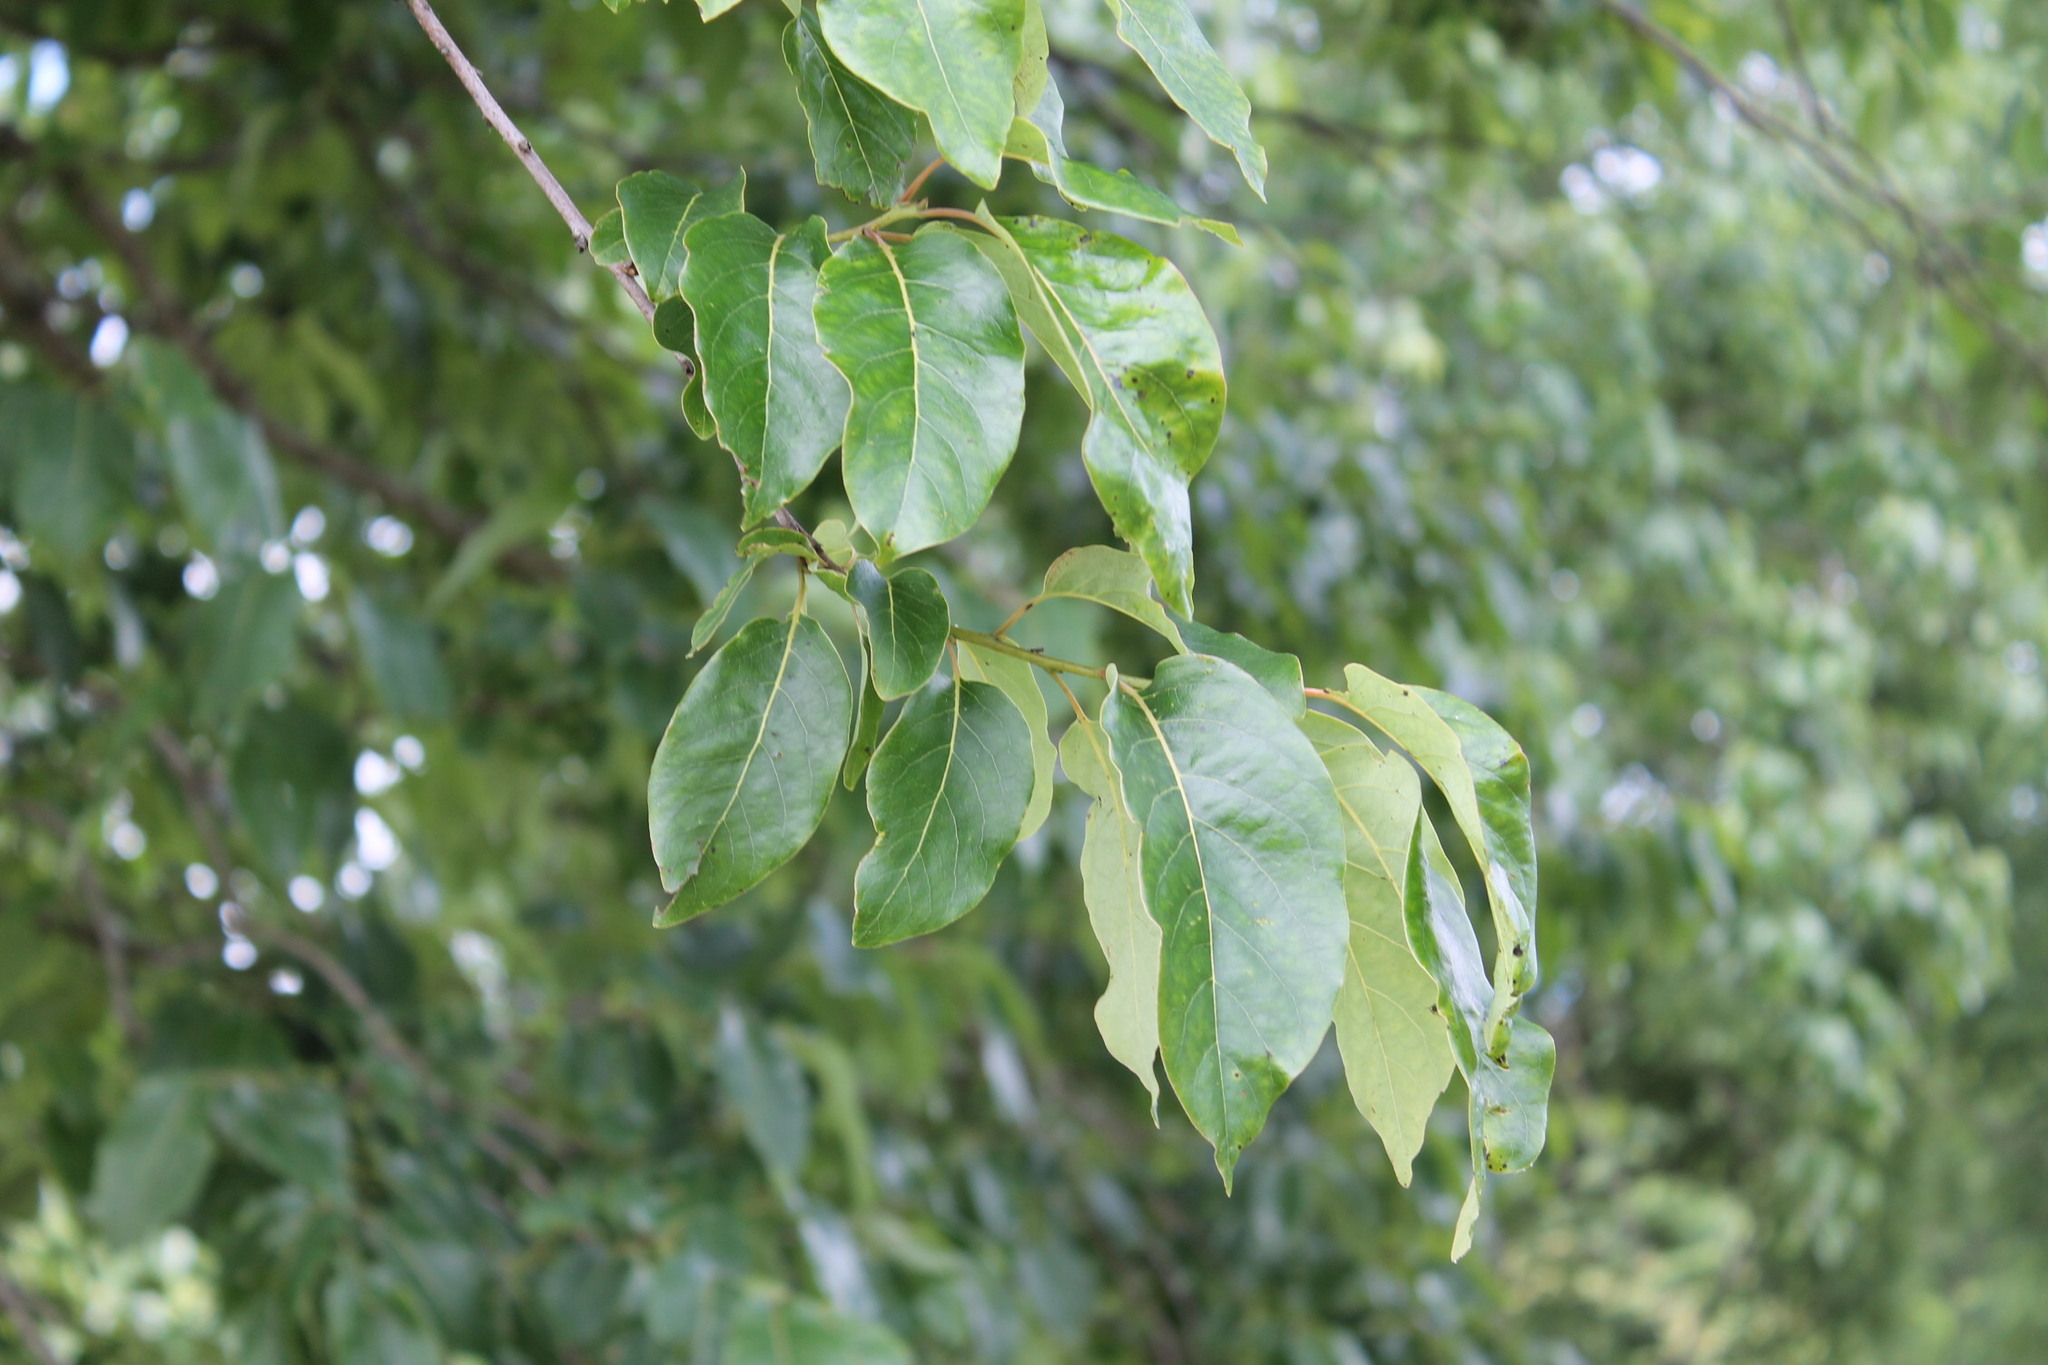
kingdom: Plantae
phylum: Tracheophyta
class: Magnoliopsida
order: Ericales
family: Ebenaceae
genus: Diospyros
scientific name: Diospyros virginiana
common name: Persimmon
